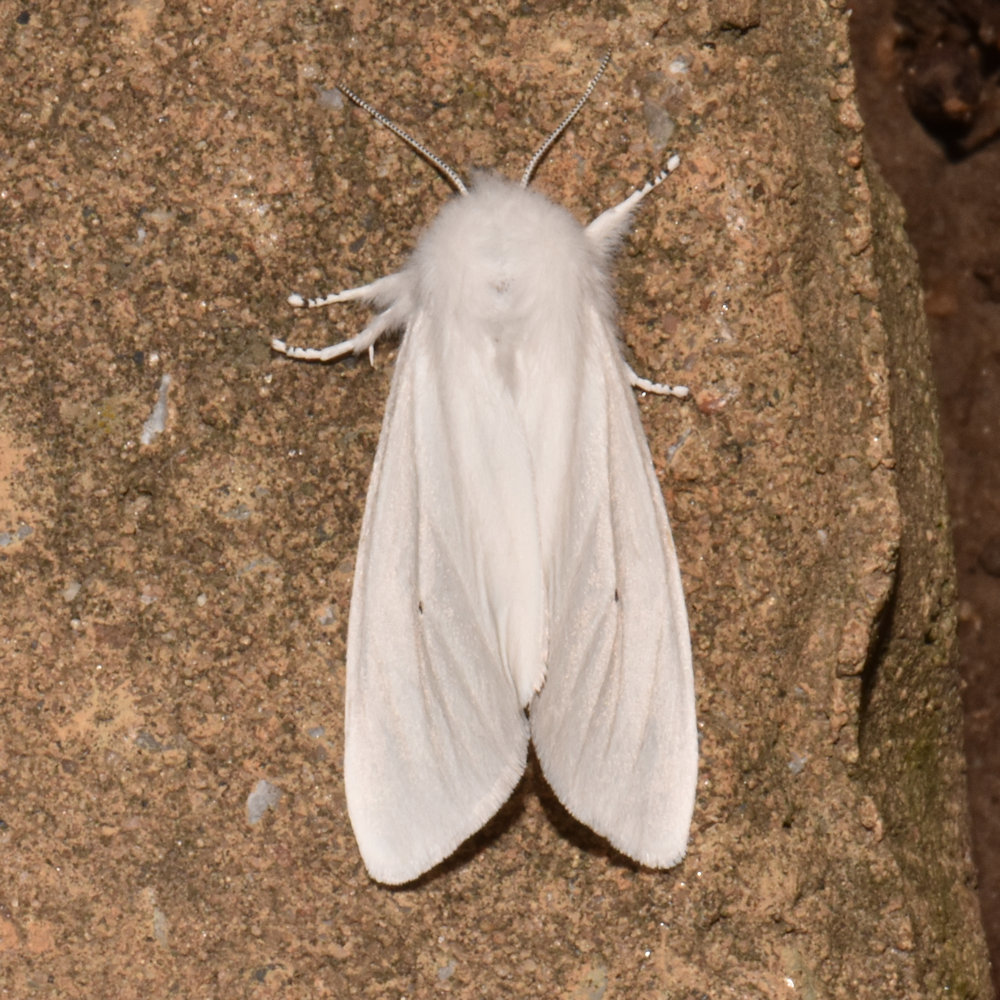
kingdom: Animalia
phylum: Arthropoda
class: Insecta
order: Lepidoptera
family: Erebidae
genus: Spilosoma
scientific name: Spilosoma virginica
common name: Virginia tiger moth
